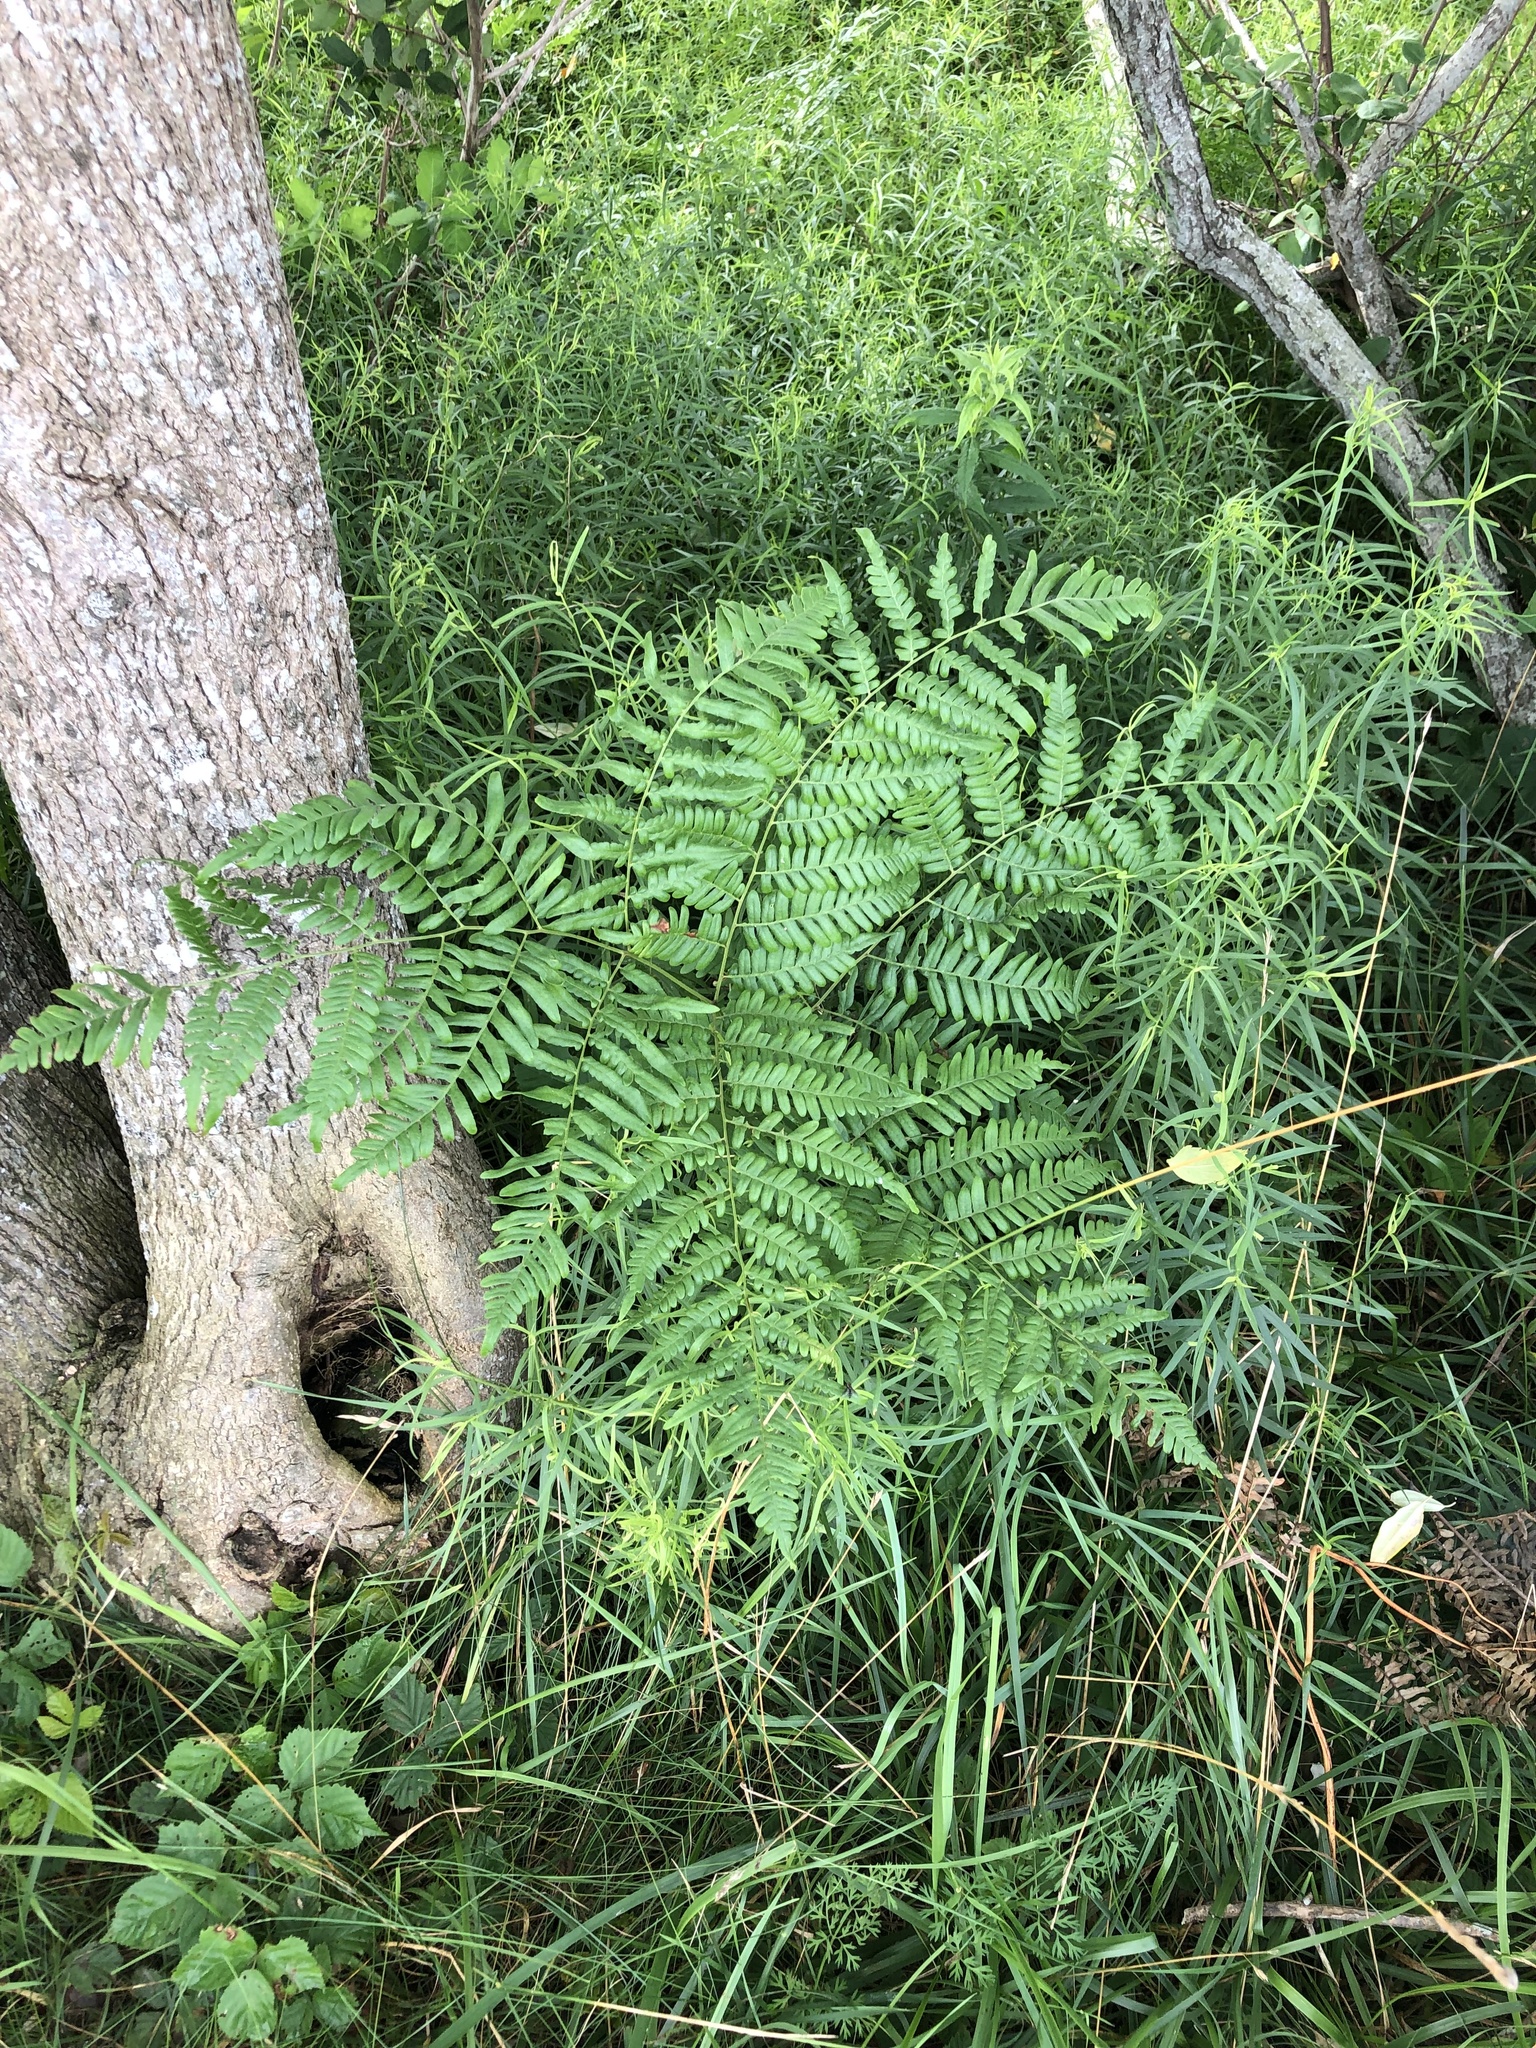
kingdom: Plantae
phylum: Tracheophyta
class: Polypodiopsida
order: Polypodiales
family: Dennstaedtiaceae
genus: Pteridium
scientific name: Pteridium aquilinum
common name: Bracken
